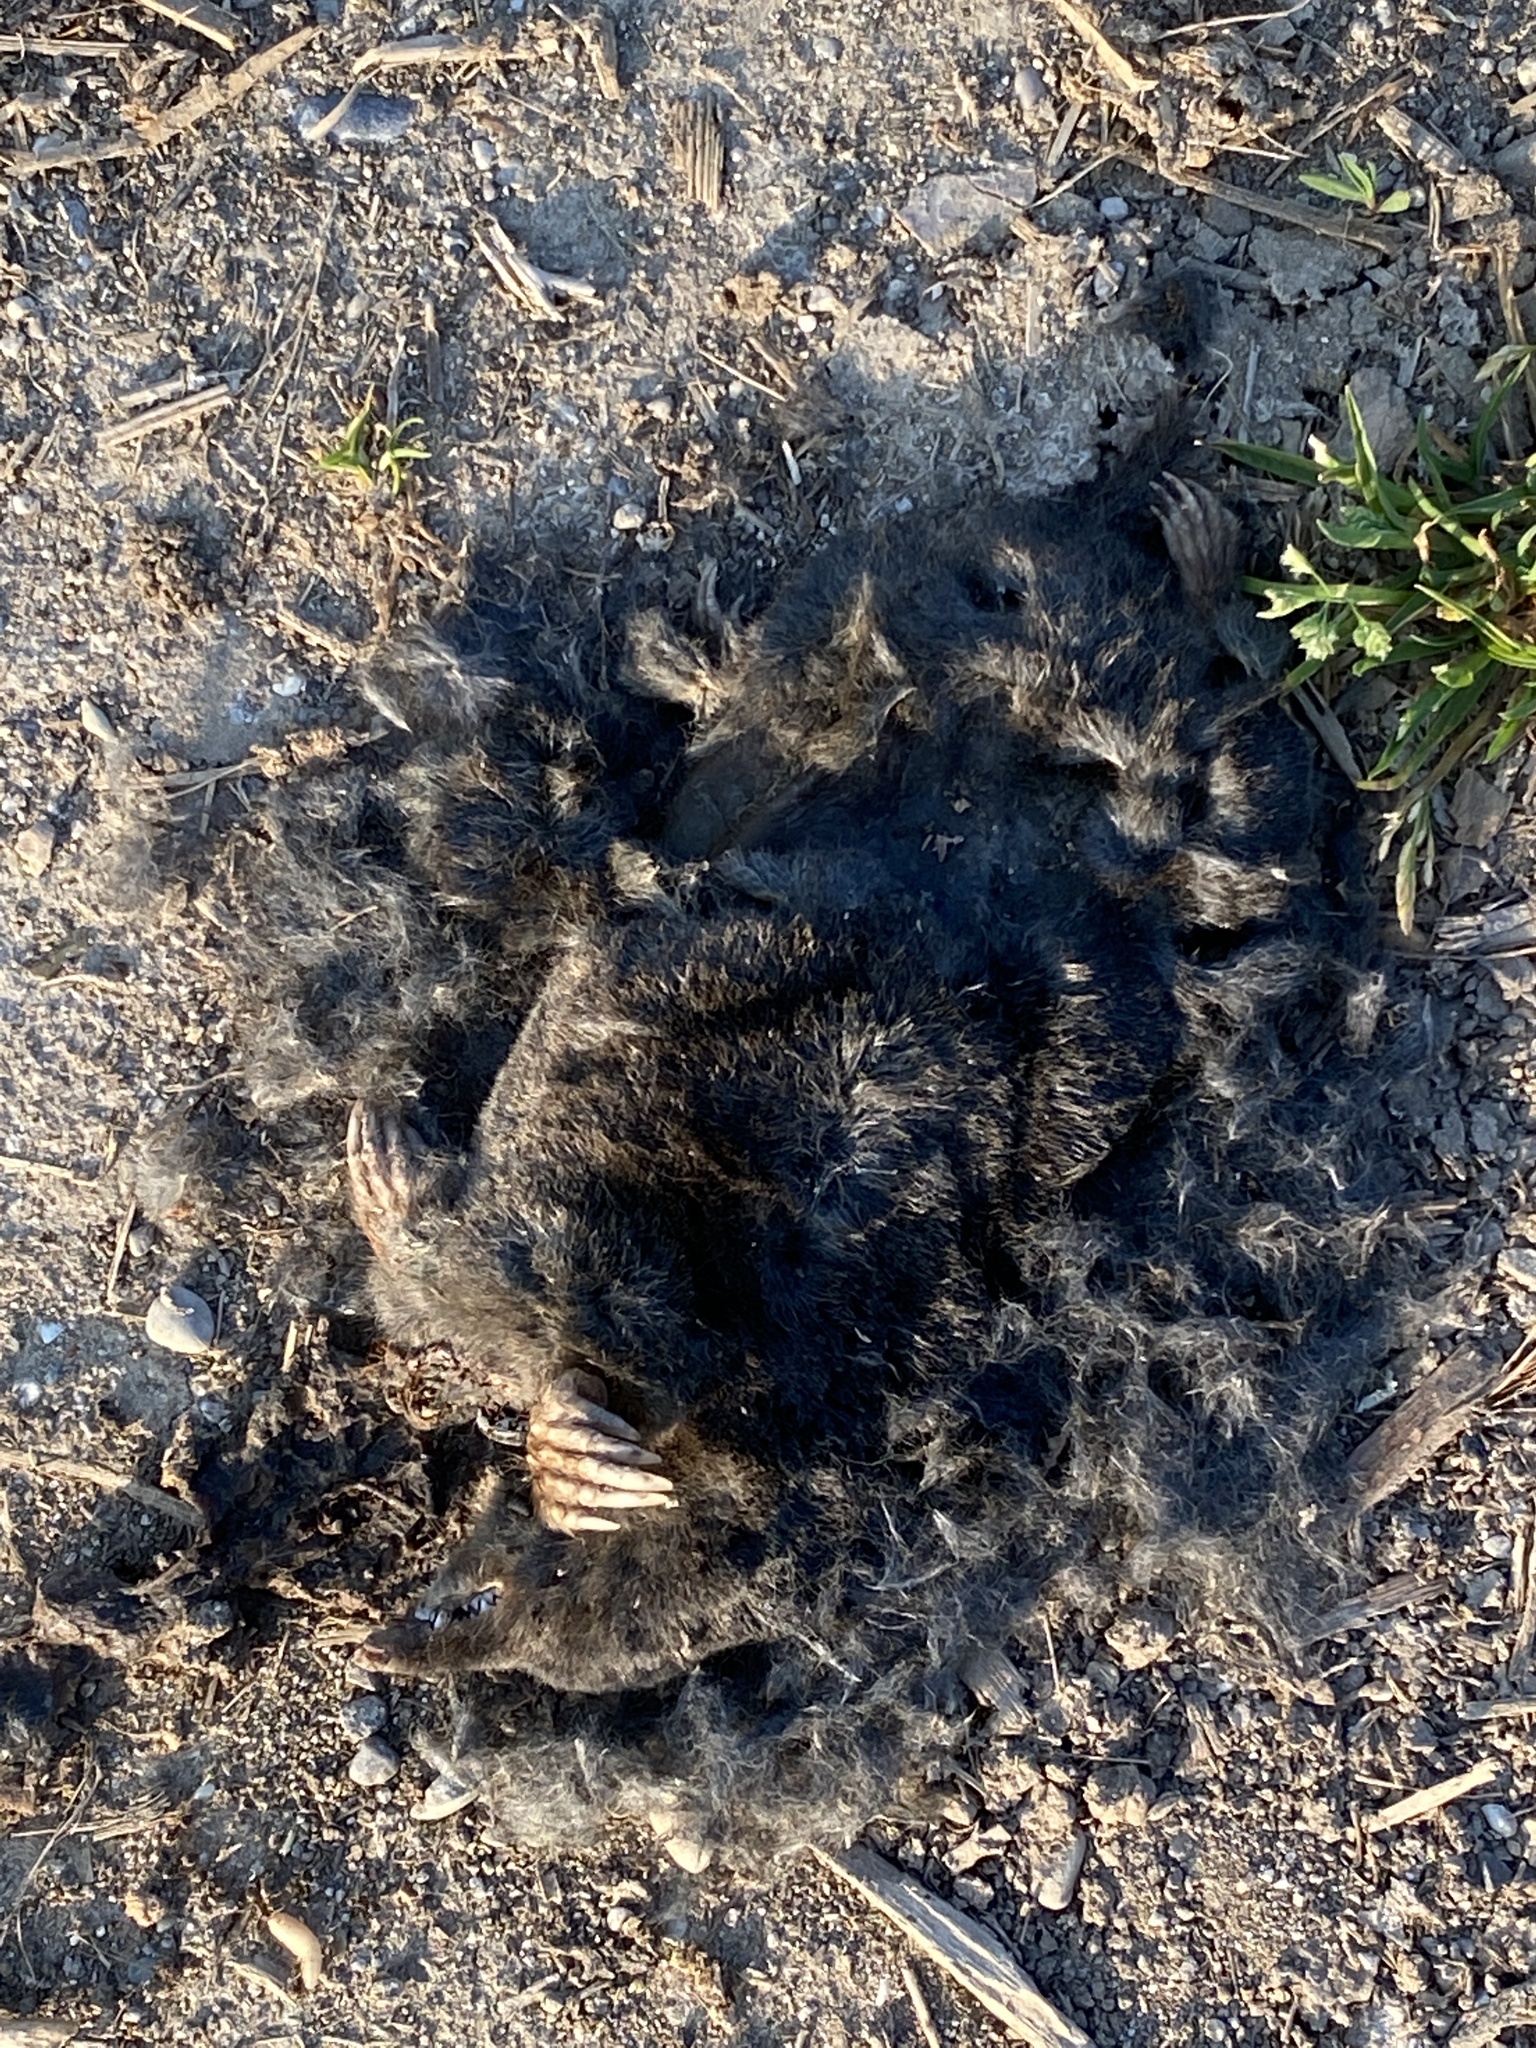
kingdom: Animalia
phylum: Chordata
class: Mammalia
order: Soricomorpha
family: Talpidae
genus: Talpa
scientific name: Talpa
